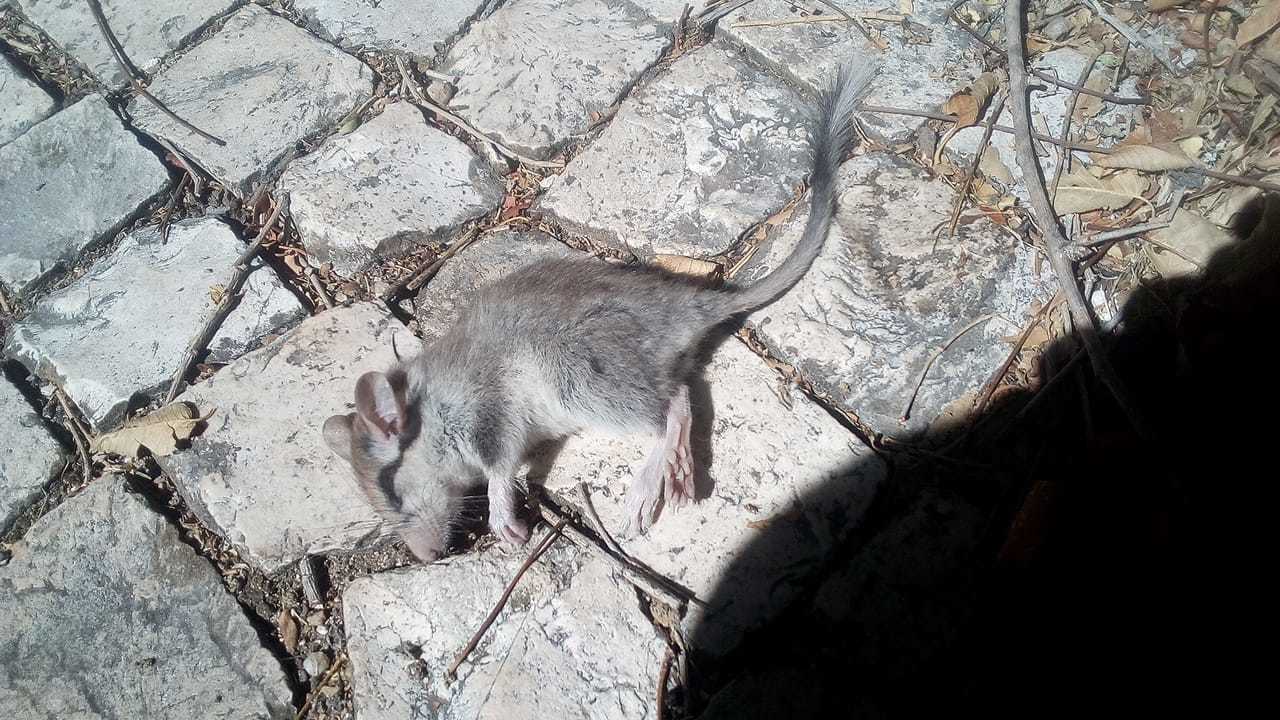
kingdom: Animalia
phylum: Chordata
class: Mammalia
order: Rodentia
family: Gliridae
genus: Eliomys
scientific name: Eliomys quercinus
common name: Garden dormouse
